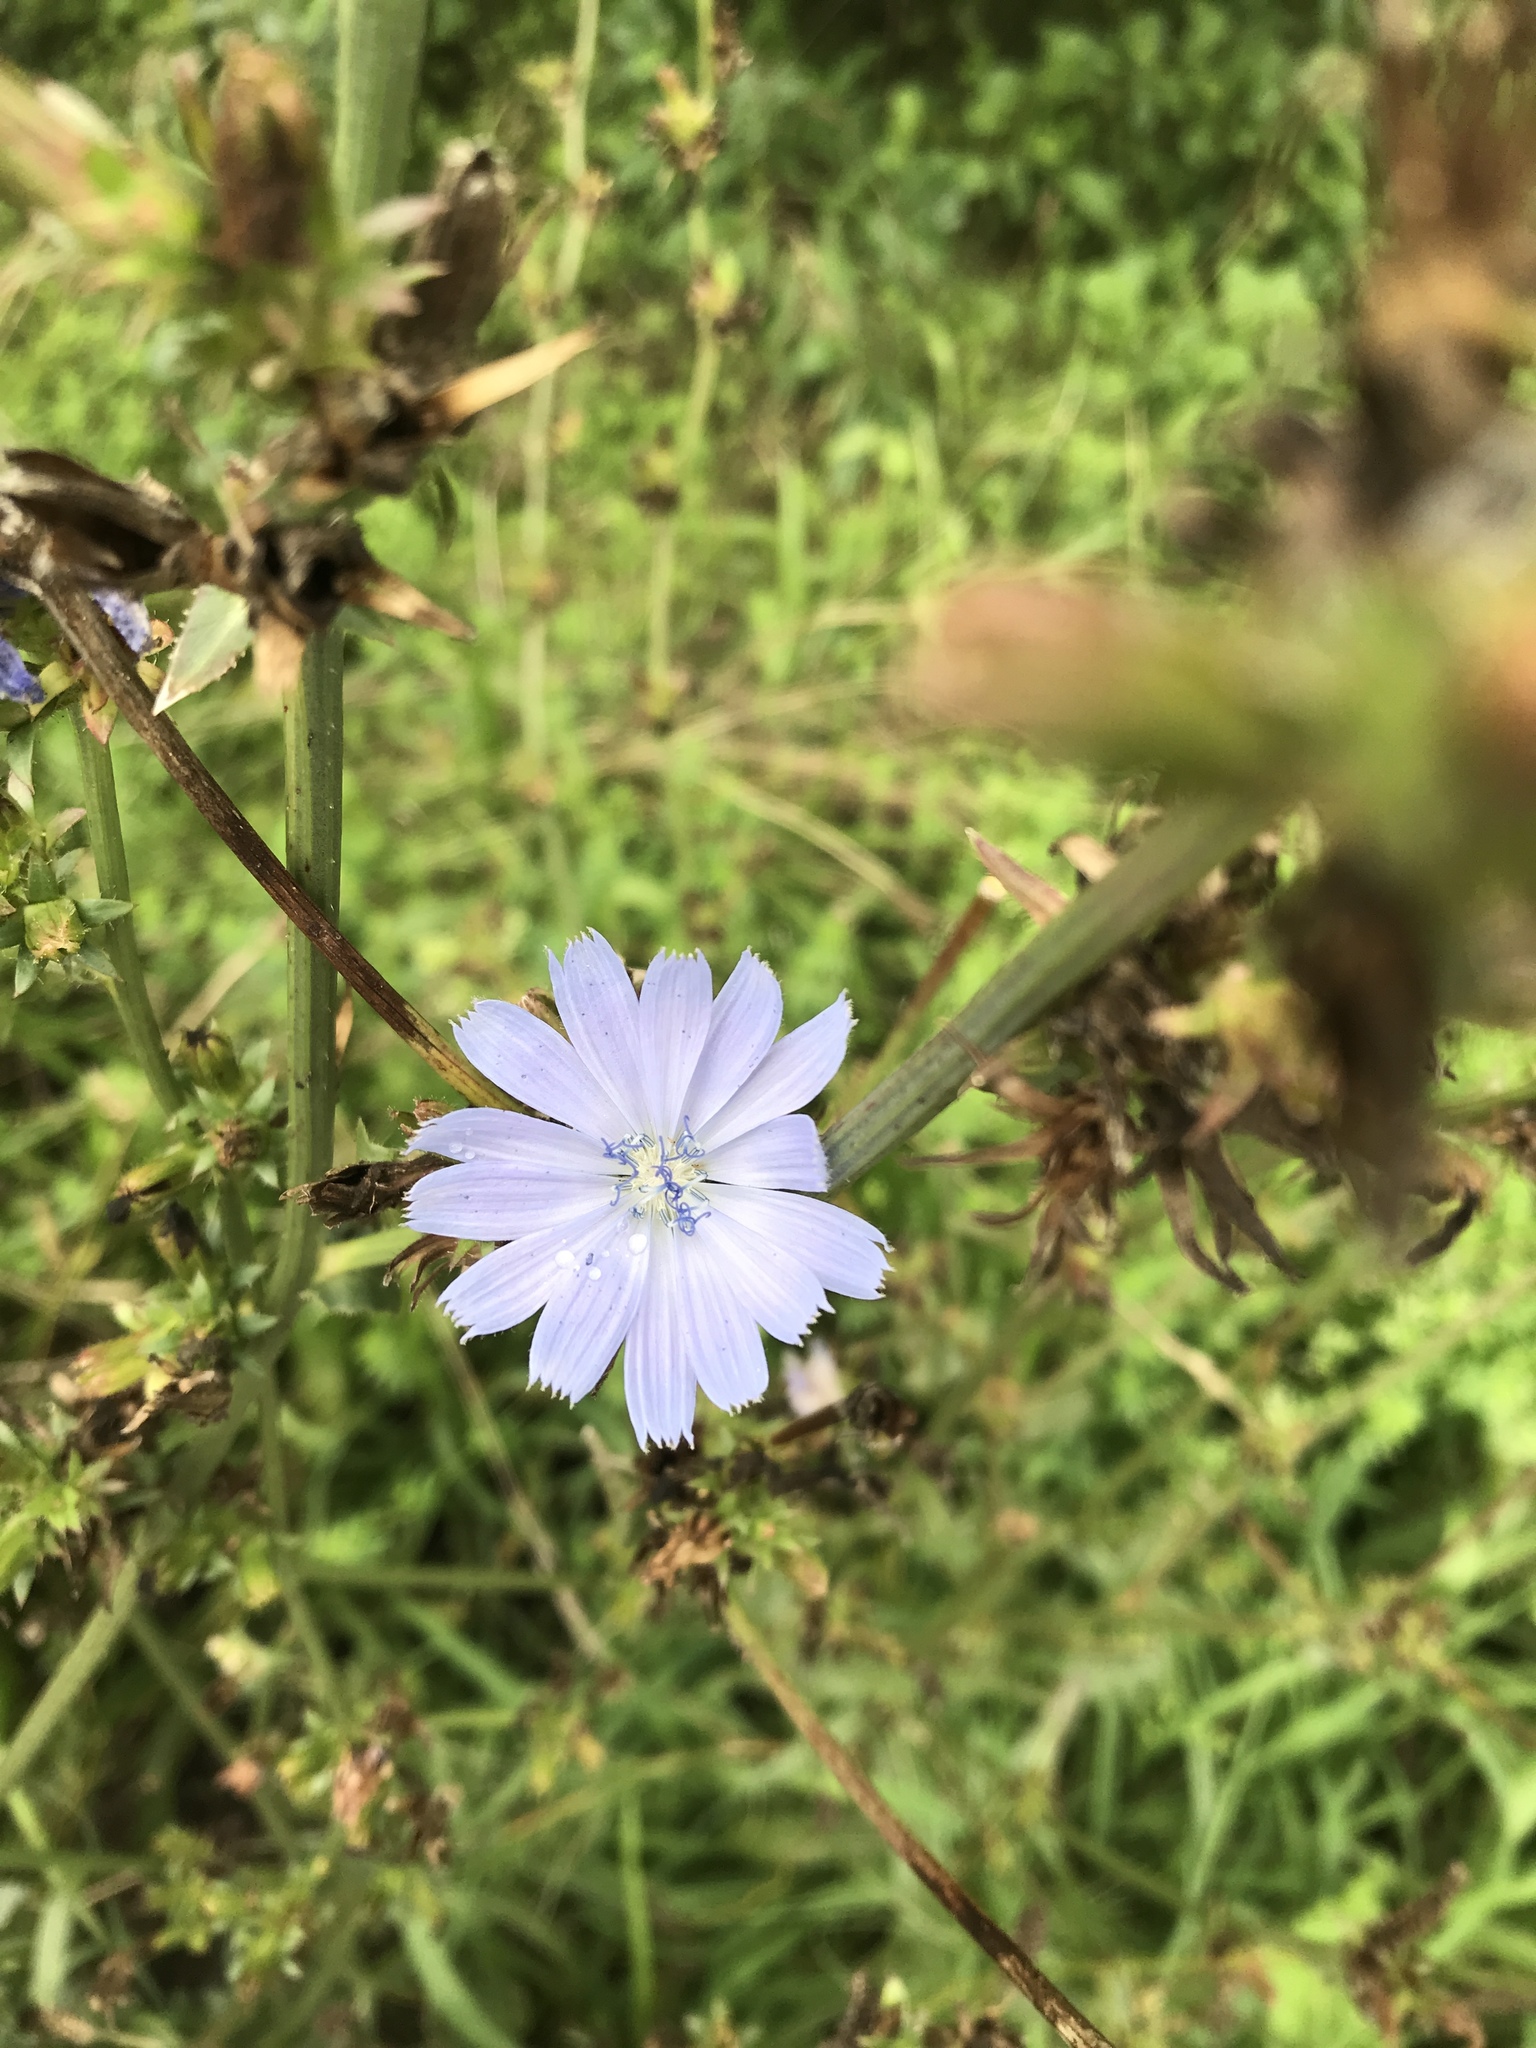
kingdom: Plantae
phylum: Tracheophyta
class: Magnoliopsida
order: Asterales
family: Asteraceae
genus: Cichorium
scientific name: Cichorium intybus
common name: Chicory
